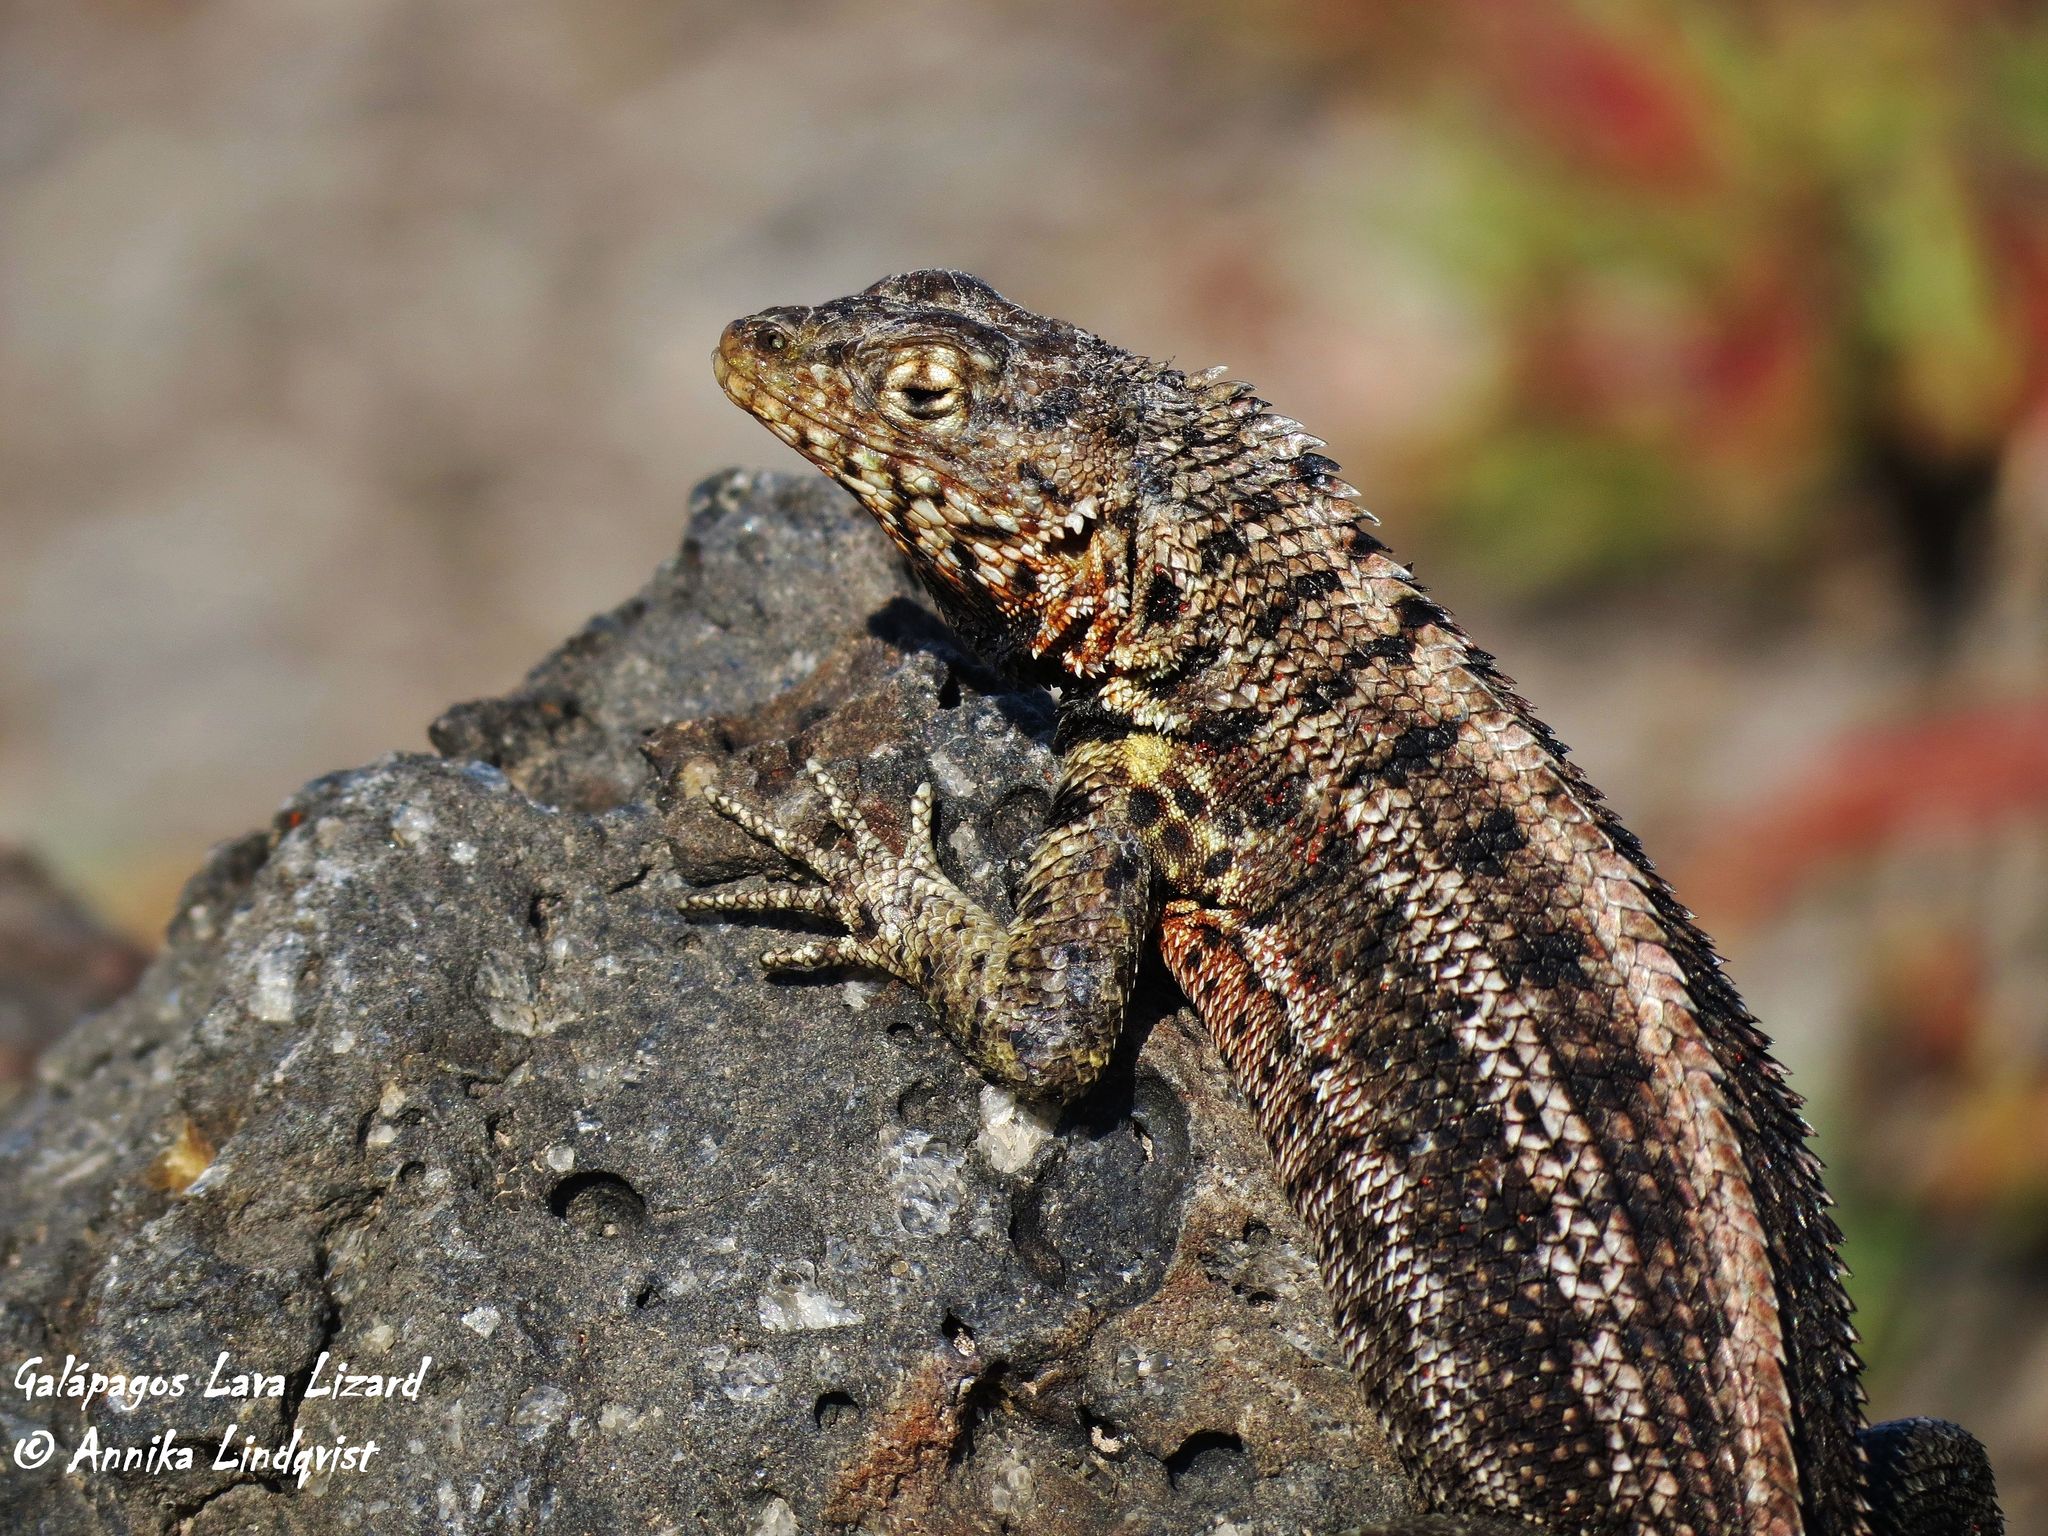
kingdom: Animalia
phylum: Chordata
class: Squamata
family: Tropiduridae
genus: Microlophus
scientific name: Microlophus indefatigabilis
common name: Galapagos lava lizard
